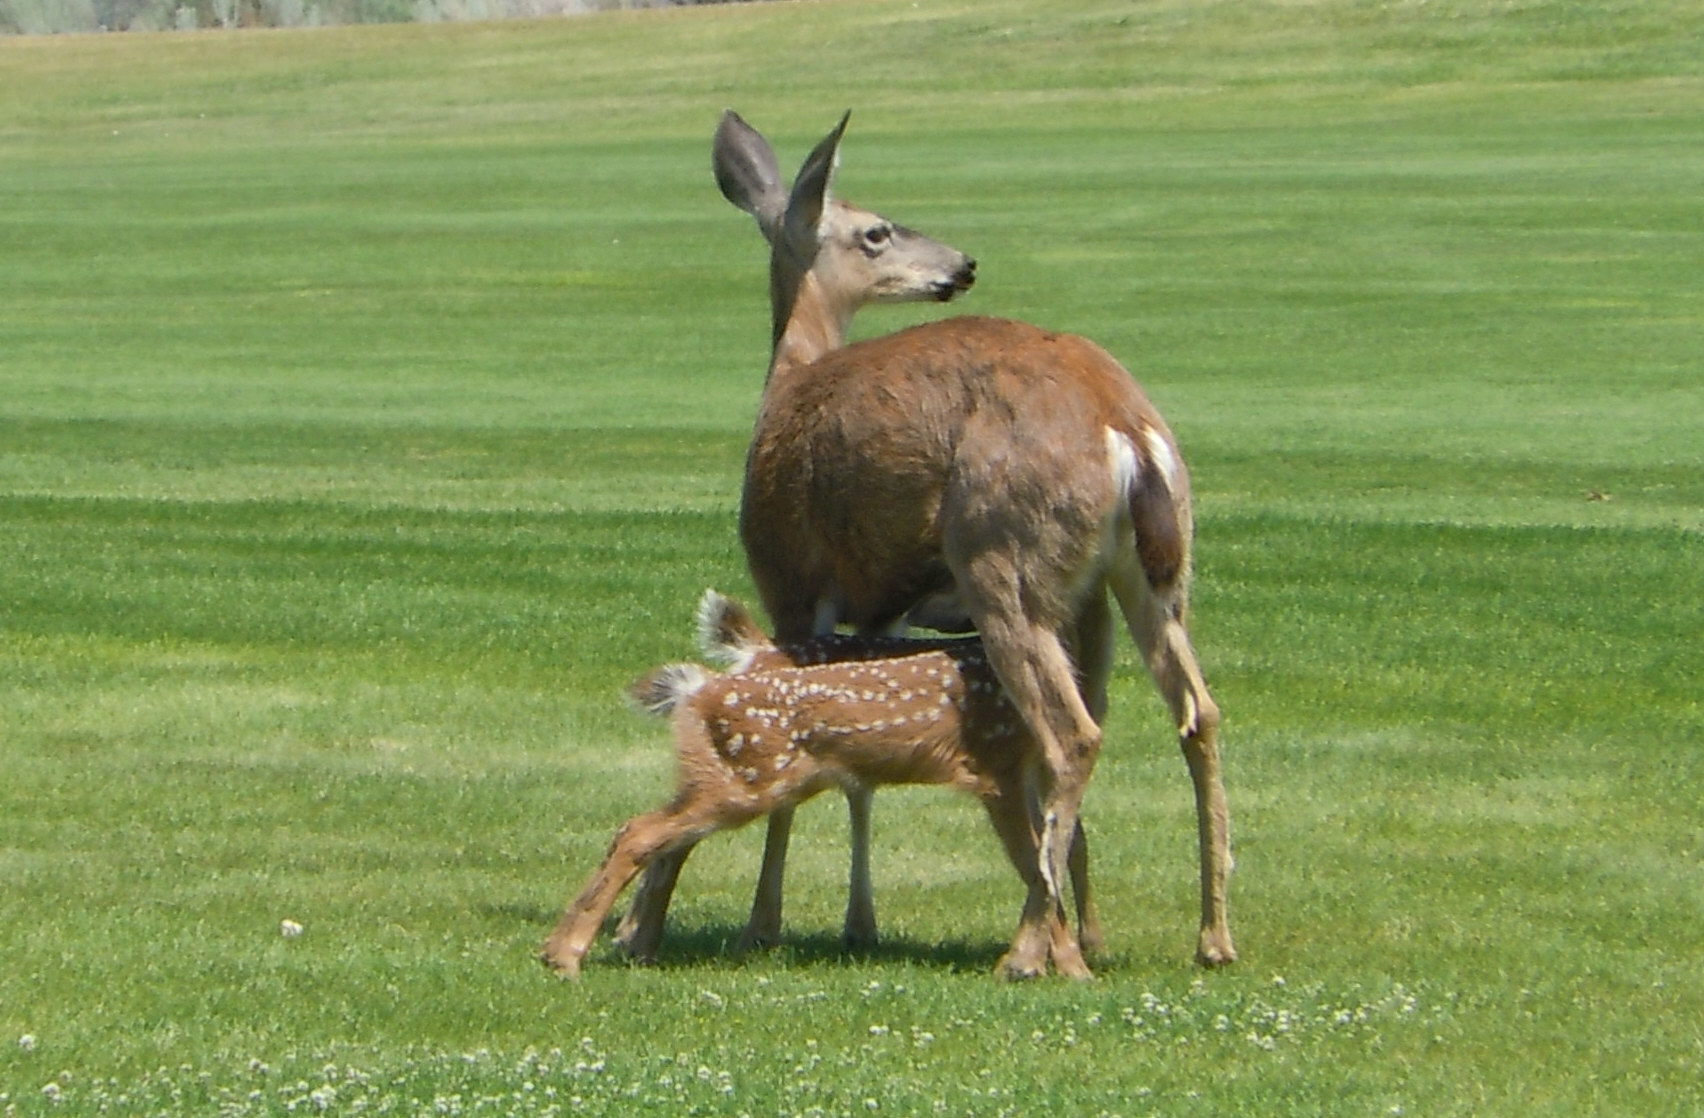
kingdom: Animalia
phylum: Chordata
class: Mammalia
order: Artiodactyla
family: Cervidae
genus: Odocoileus
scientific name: Odocoileus hemionus
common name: Mule deer
